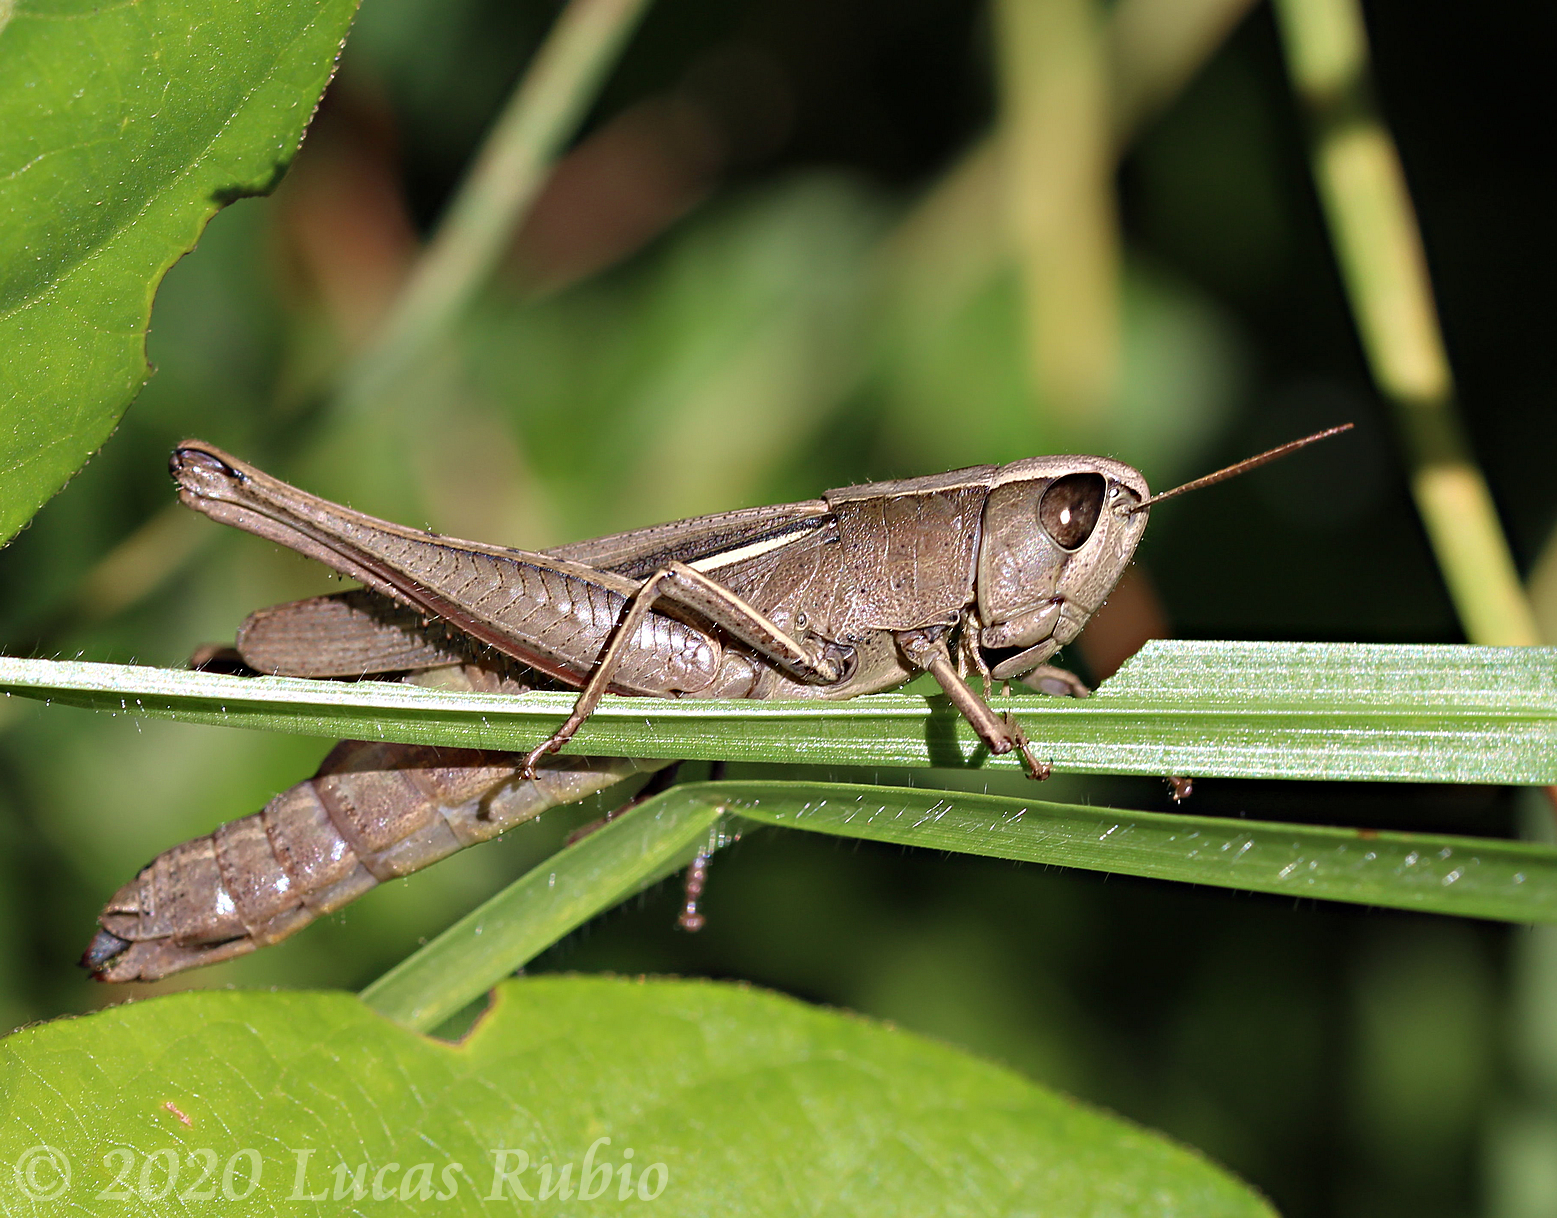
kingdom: Animalia
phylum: Arthropoda
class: Insecta
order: Orthoptera
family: Acrididae
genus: Amblytropidia
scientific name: Amblytropidia australis
